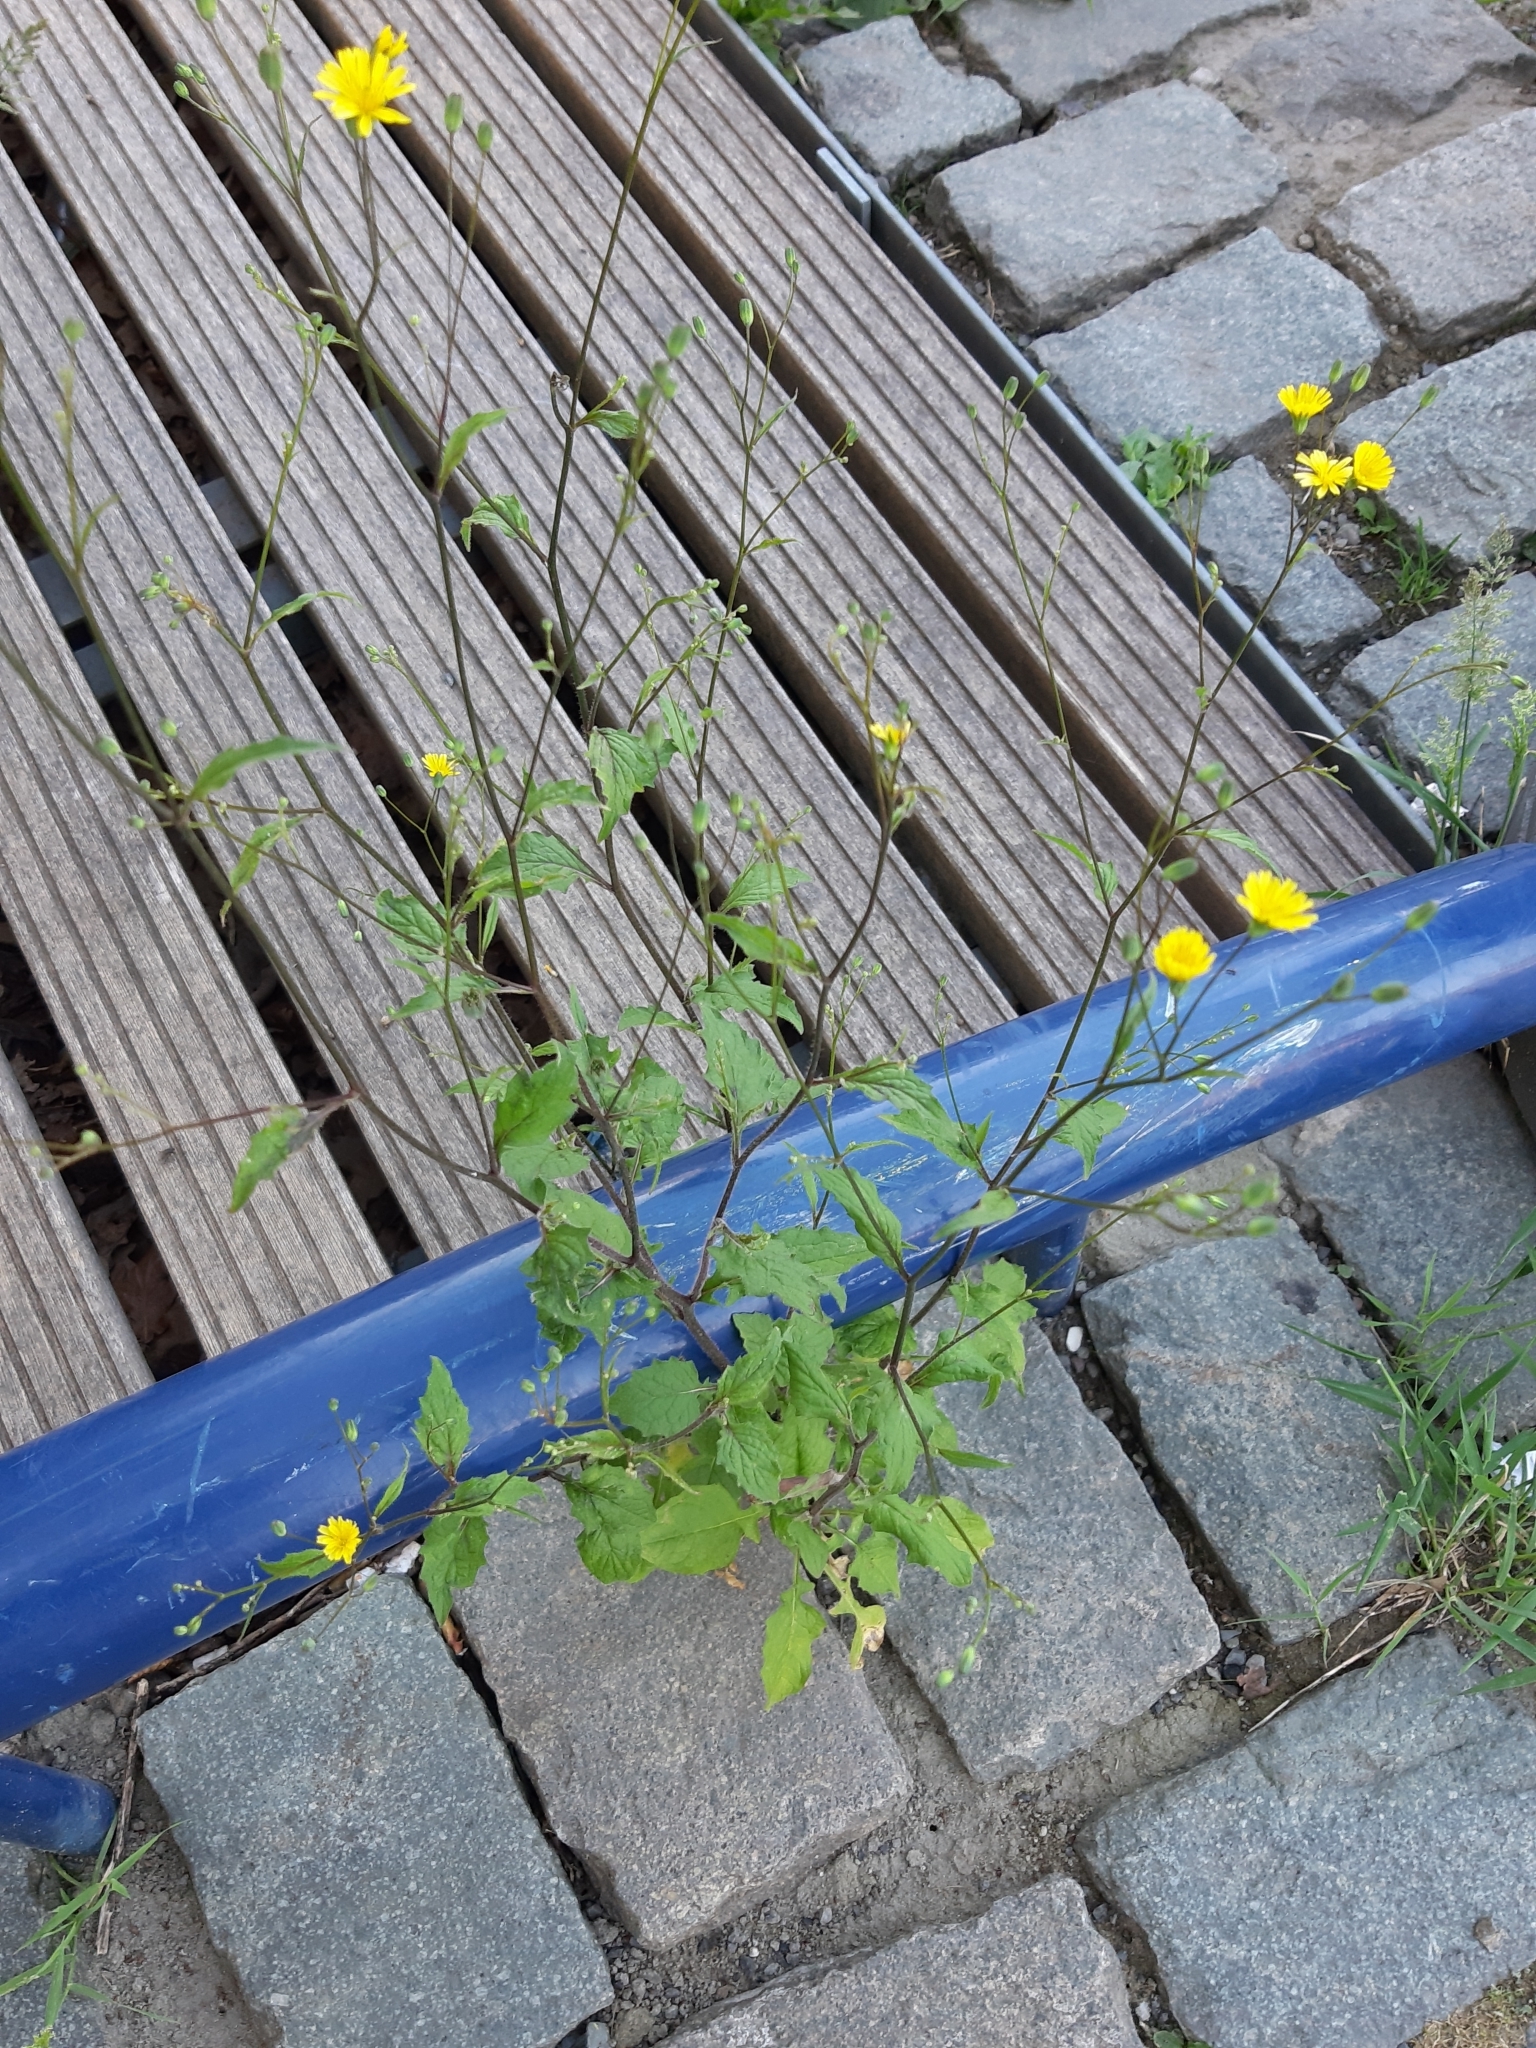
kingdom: Plantae
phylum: Tracheophyta
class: Magnoliopsida
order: Asterales
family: Asteraceae
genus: Lapsana
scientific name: Lapsana communis
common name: Nipplewort
